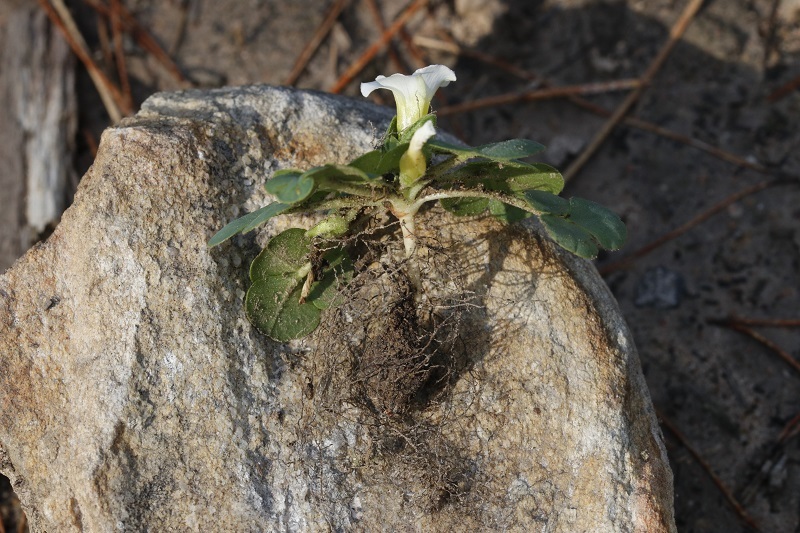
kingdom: Plantae
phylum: Tracheophyta
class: Magnoliopsida
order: Oxalidales
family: Oxalidaceae
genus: Oxalis
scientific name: Oxalis purpurea
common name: Purple woodsorrel
